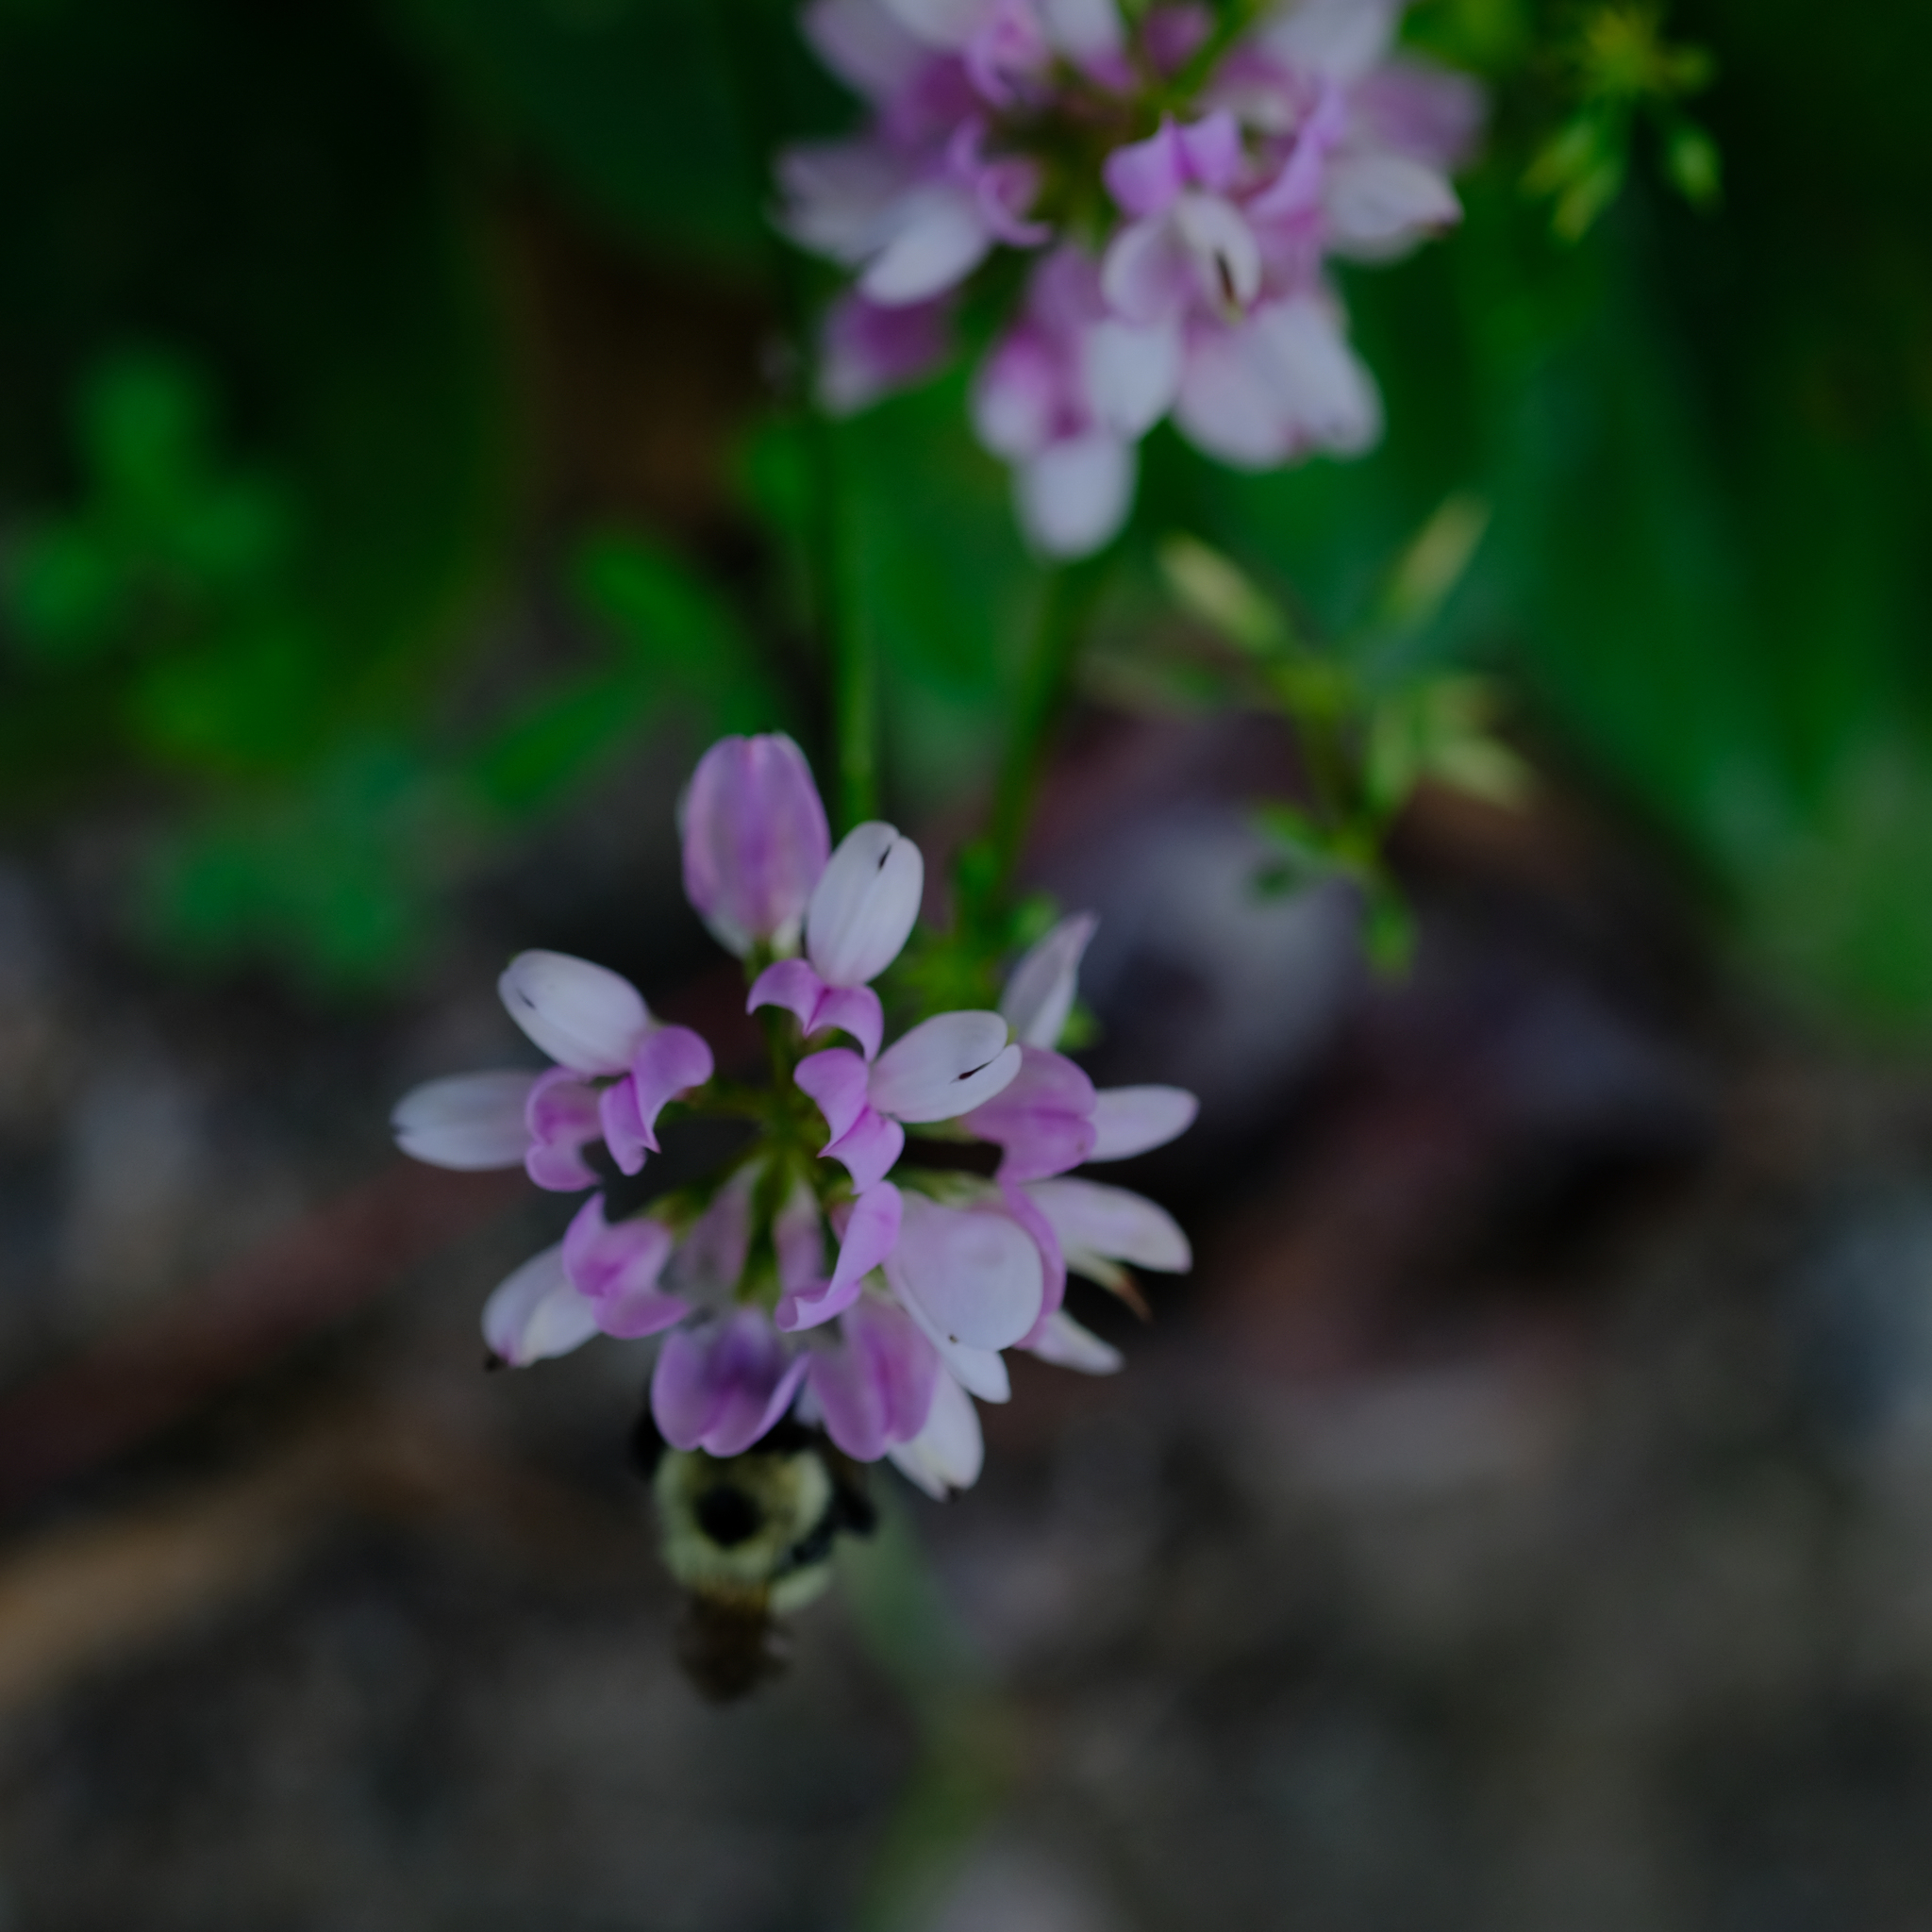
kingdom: Plantae
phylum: Tracheophyta
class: Magnoliopsida
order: Fabales
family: Fabaceae
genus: Coronilla
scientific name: Coronilla varia
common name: Crownvetch
